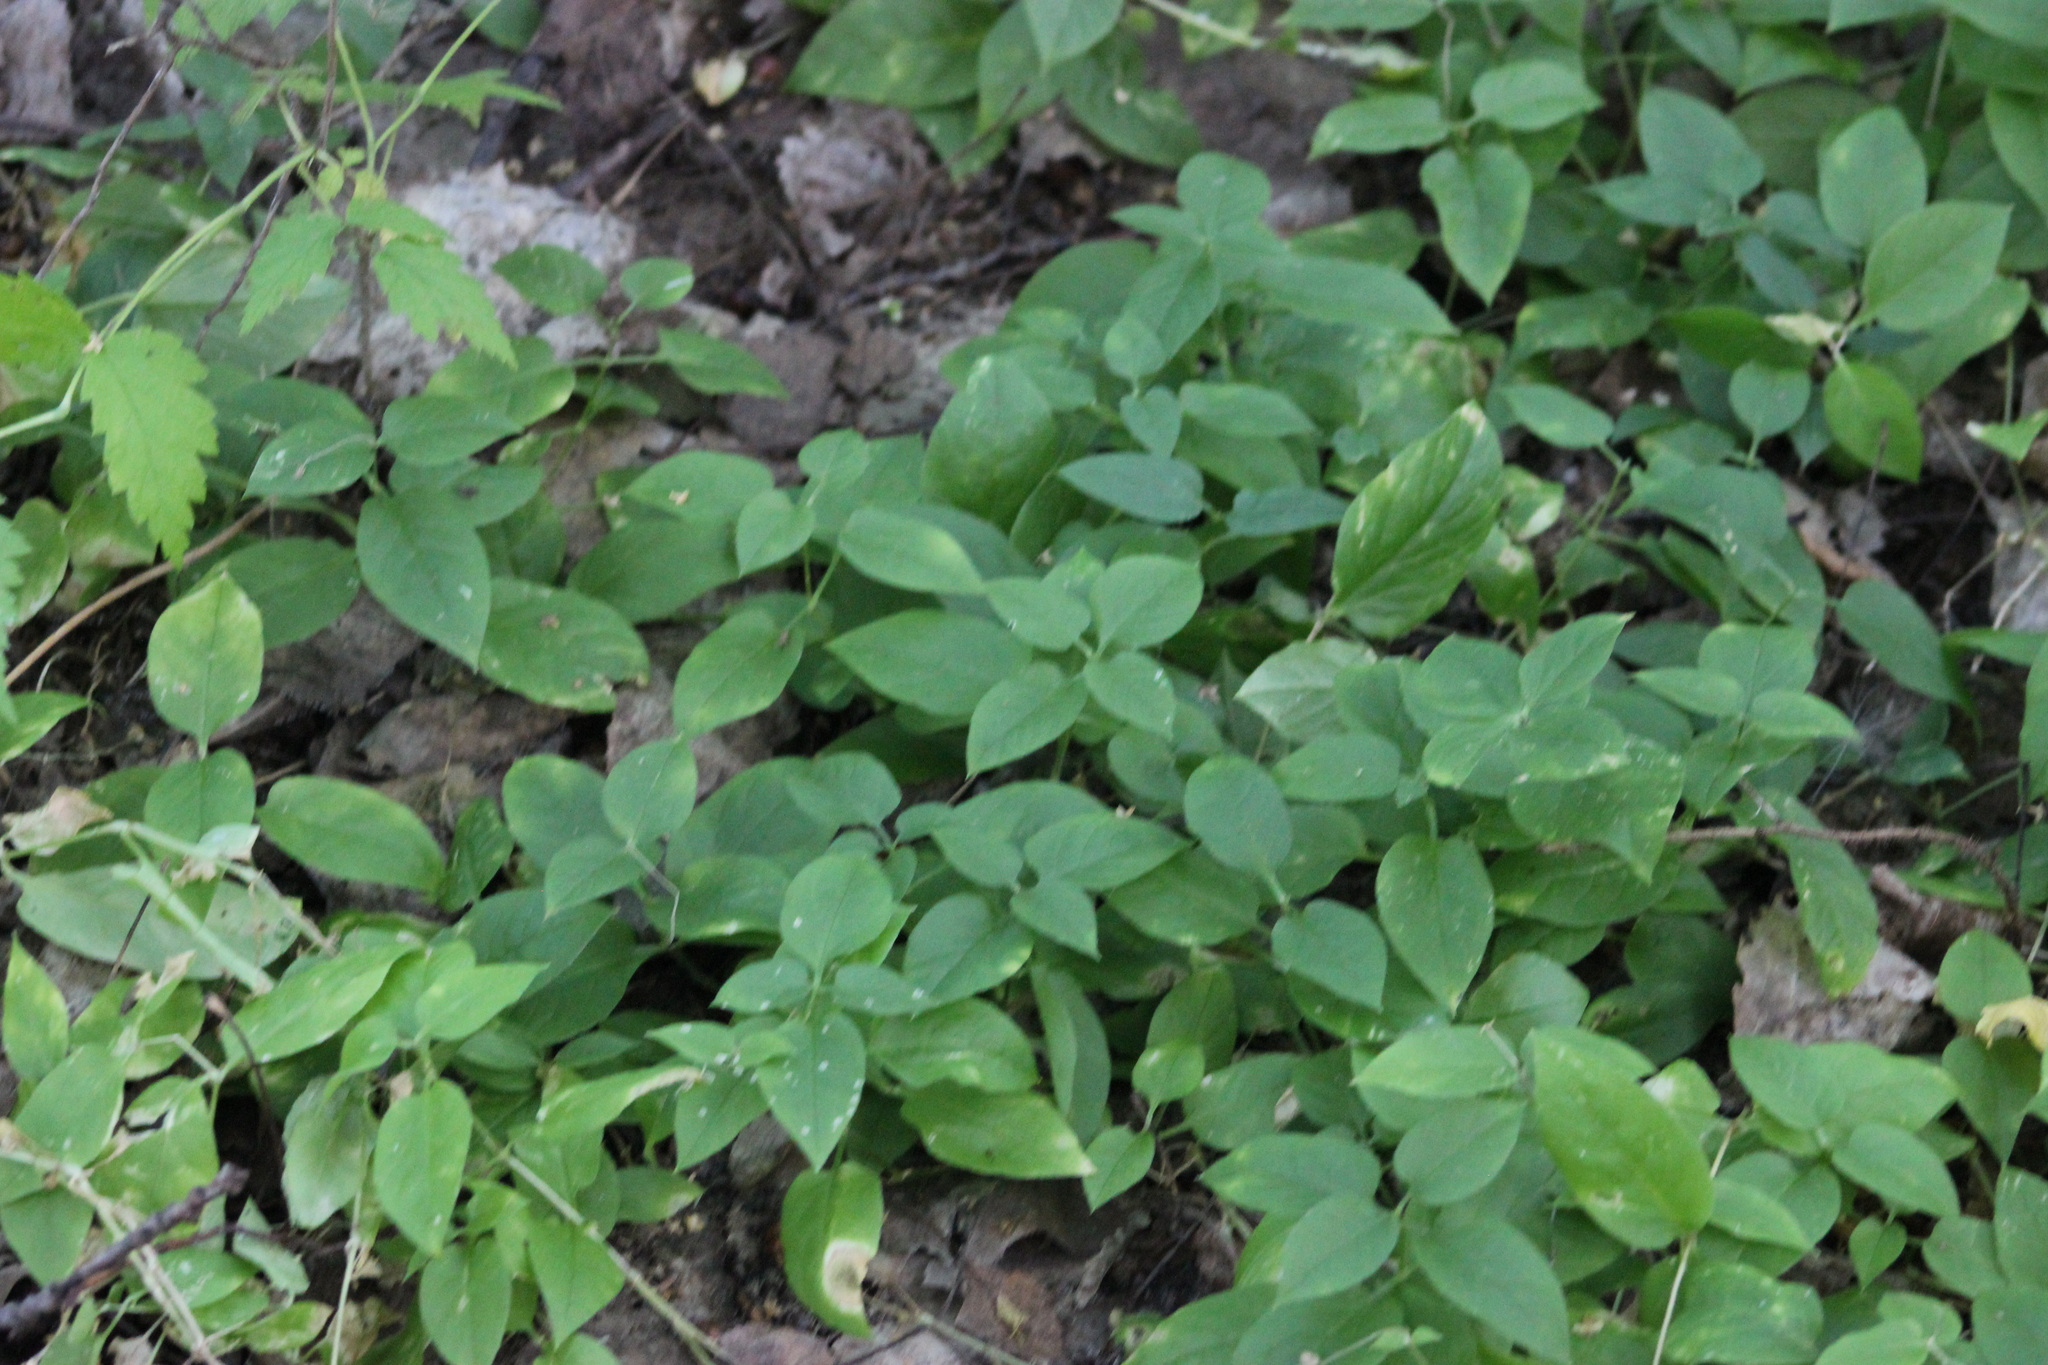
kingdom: Plantae
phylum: Tracheophyta
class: Magnoliopsida
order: Caryophyllales
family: Caryophyllaceae
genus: Stellaria
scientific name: Stellaria bungeana
